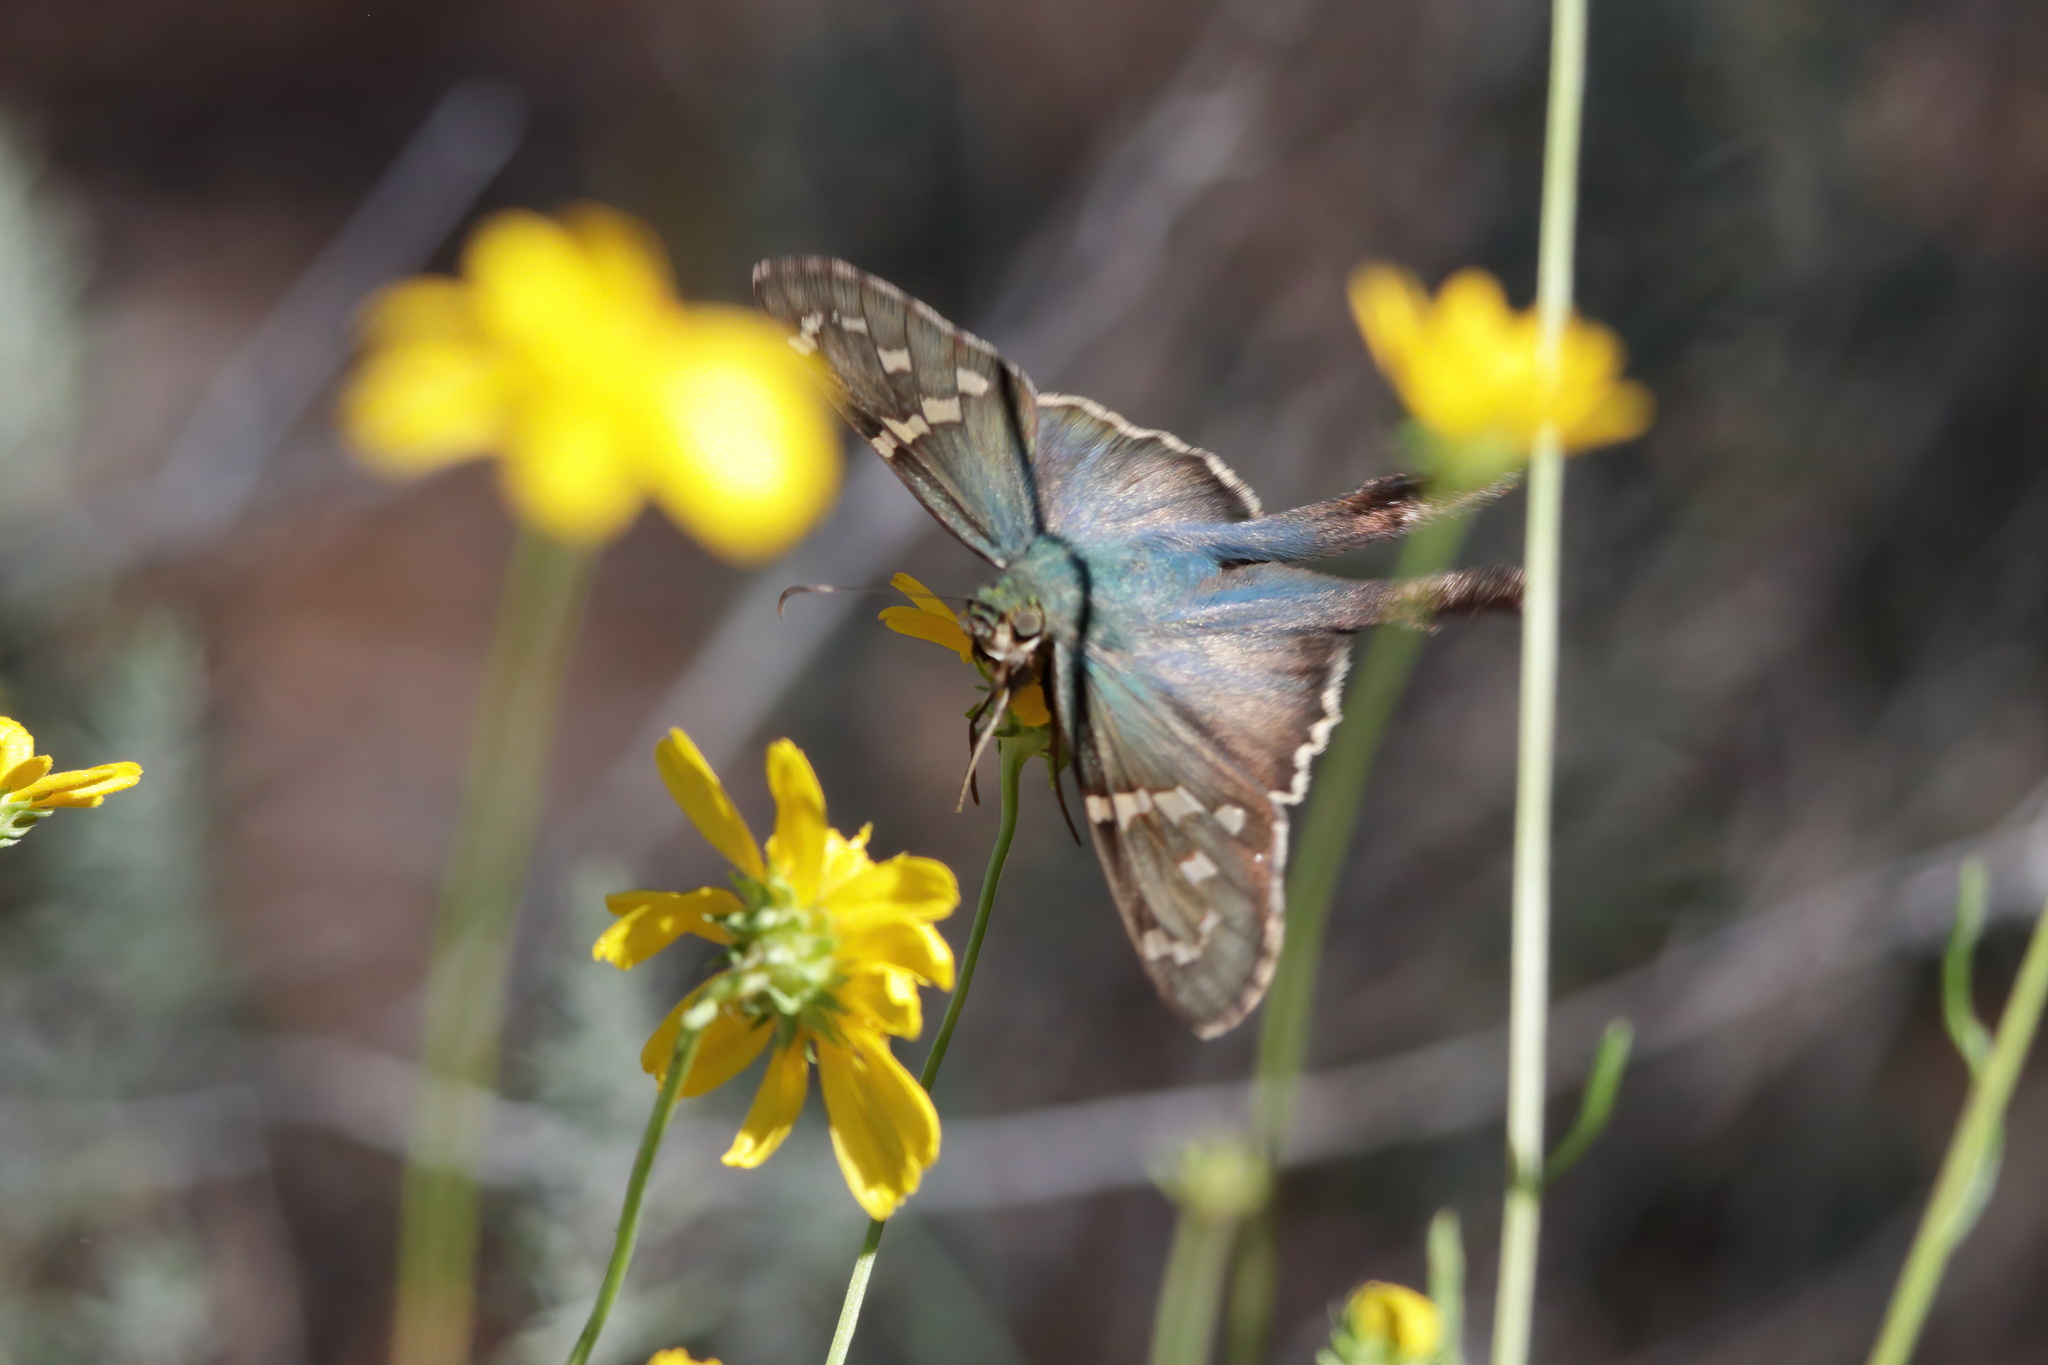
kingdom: Animalia
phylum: Arthropoda
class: Insecta
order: Lepidoptera
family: Hesperiidae
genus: Urbanus
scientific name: Urbanus proteus
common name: Long-tailed skipper
